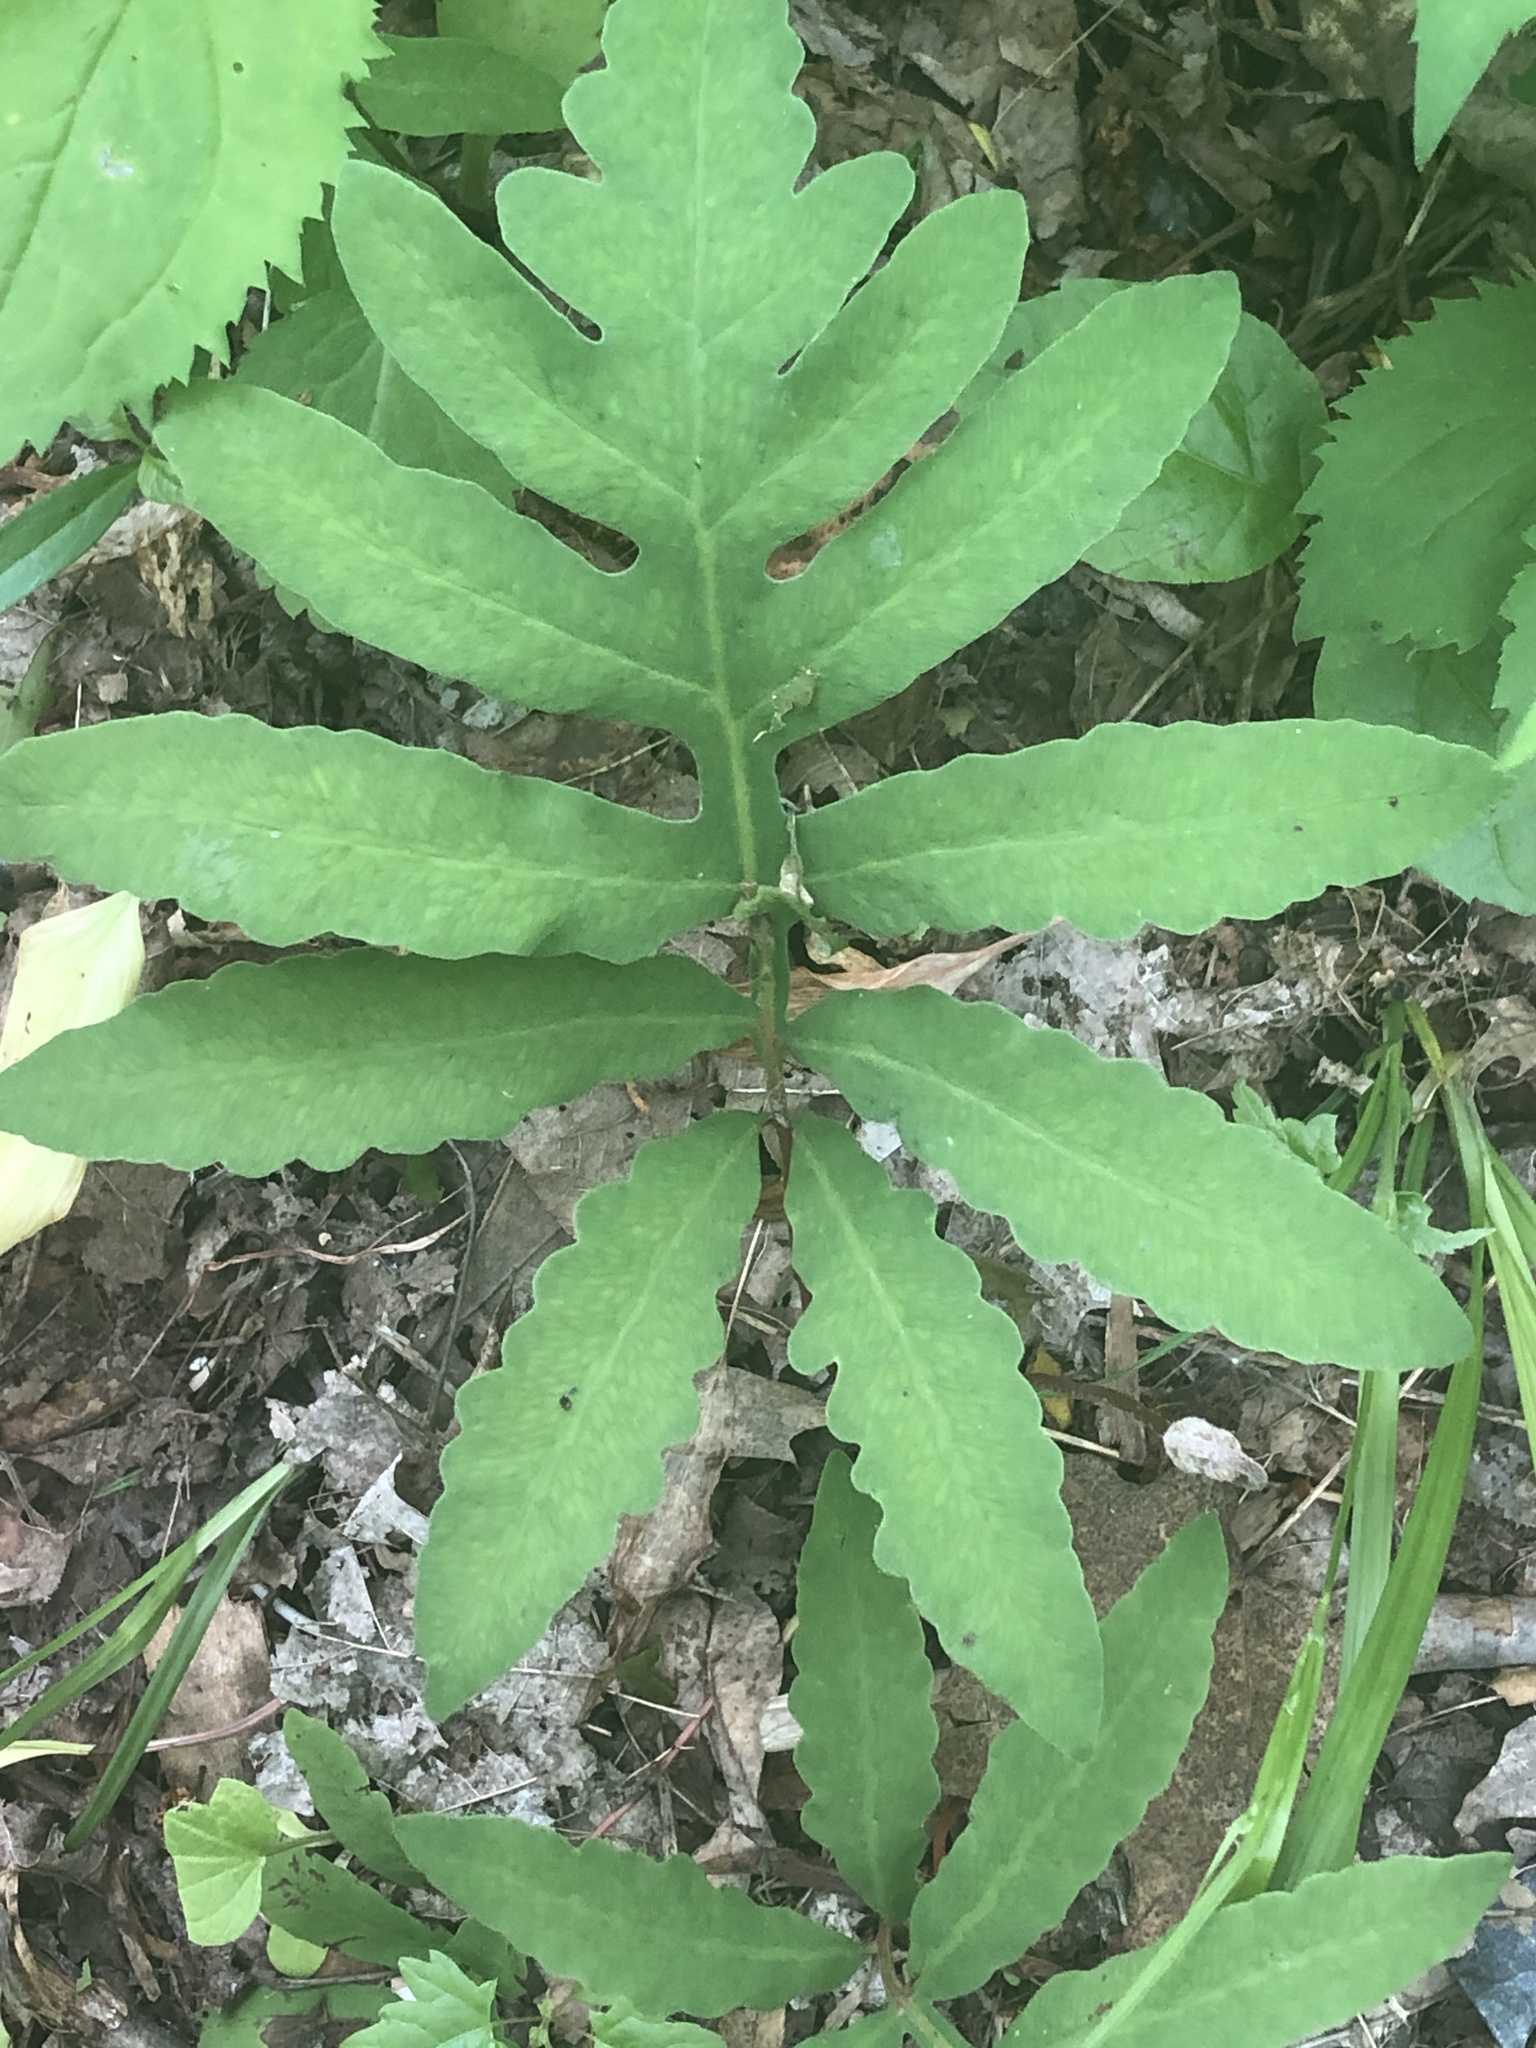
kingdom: Plantae
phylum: Tracheophyta
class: Polypodiopsida
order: Polypodiales
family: Onocleaceae
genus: Onoclea
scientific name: Onoclea sensibilis
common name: Sensitive fern
